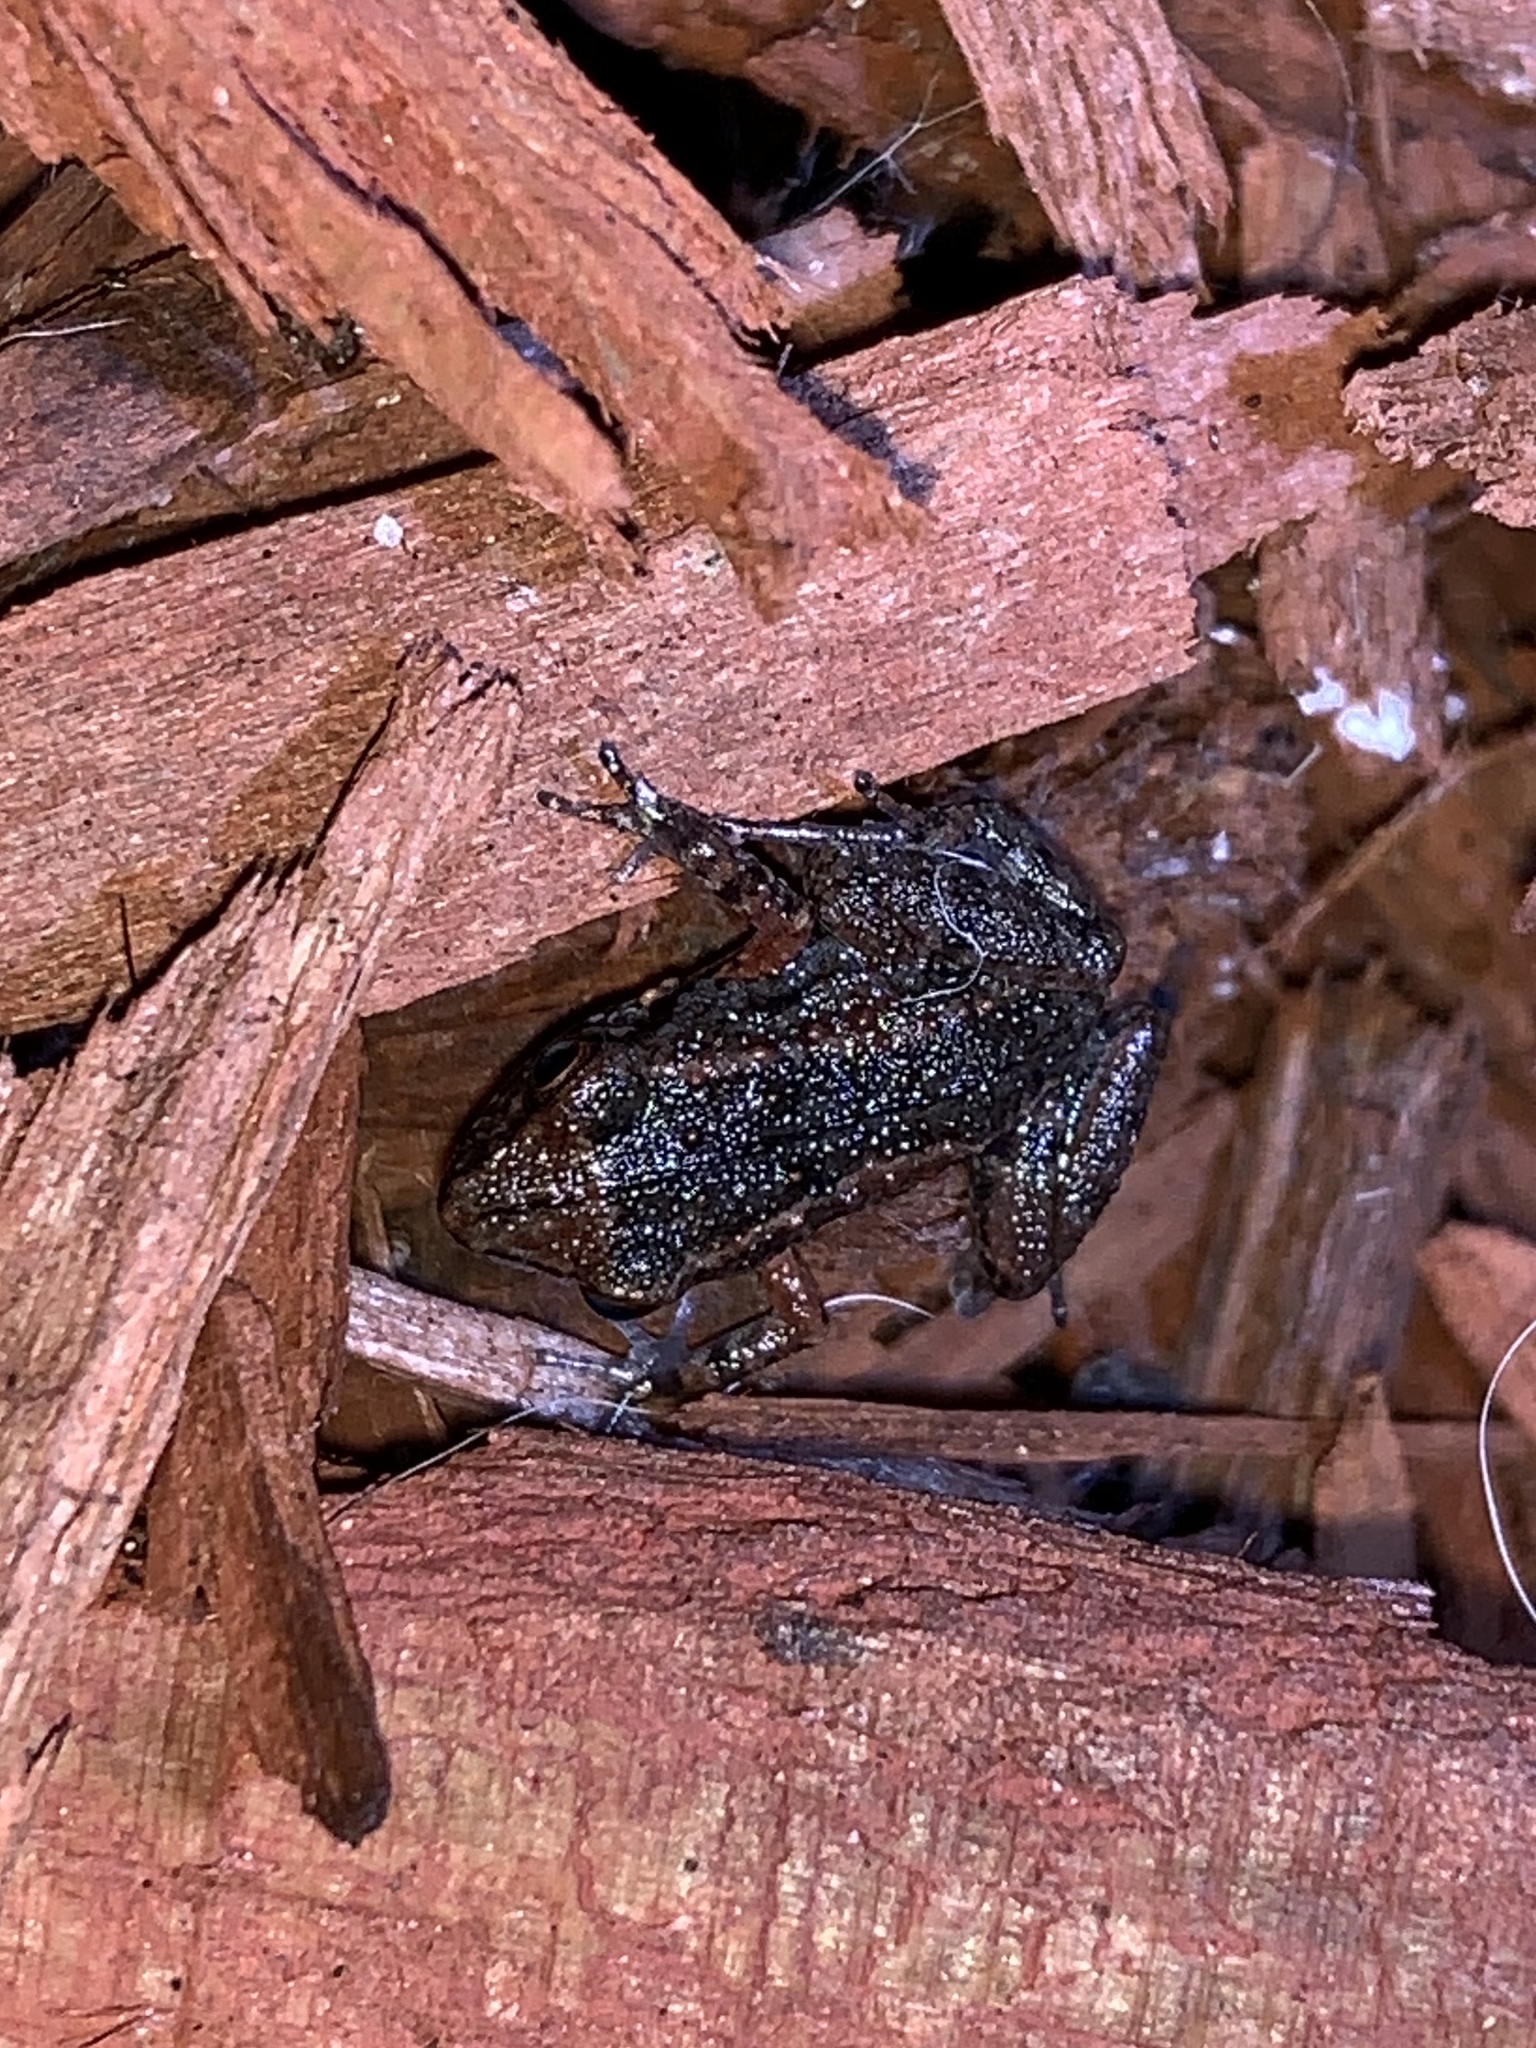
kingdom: Animalia
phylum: Chordata
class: Amphibia
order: Anura
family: Eleutherodactylidae
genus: Eleutherodactylus
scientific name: Eleutherodactylus planirostris
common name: Greenhouse frog
